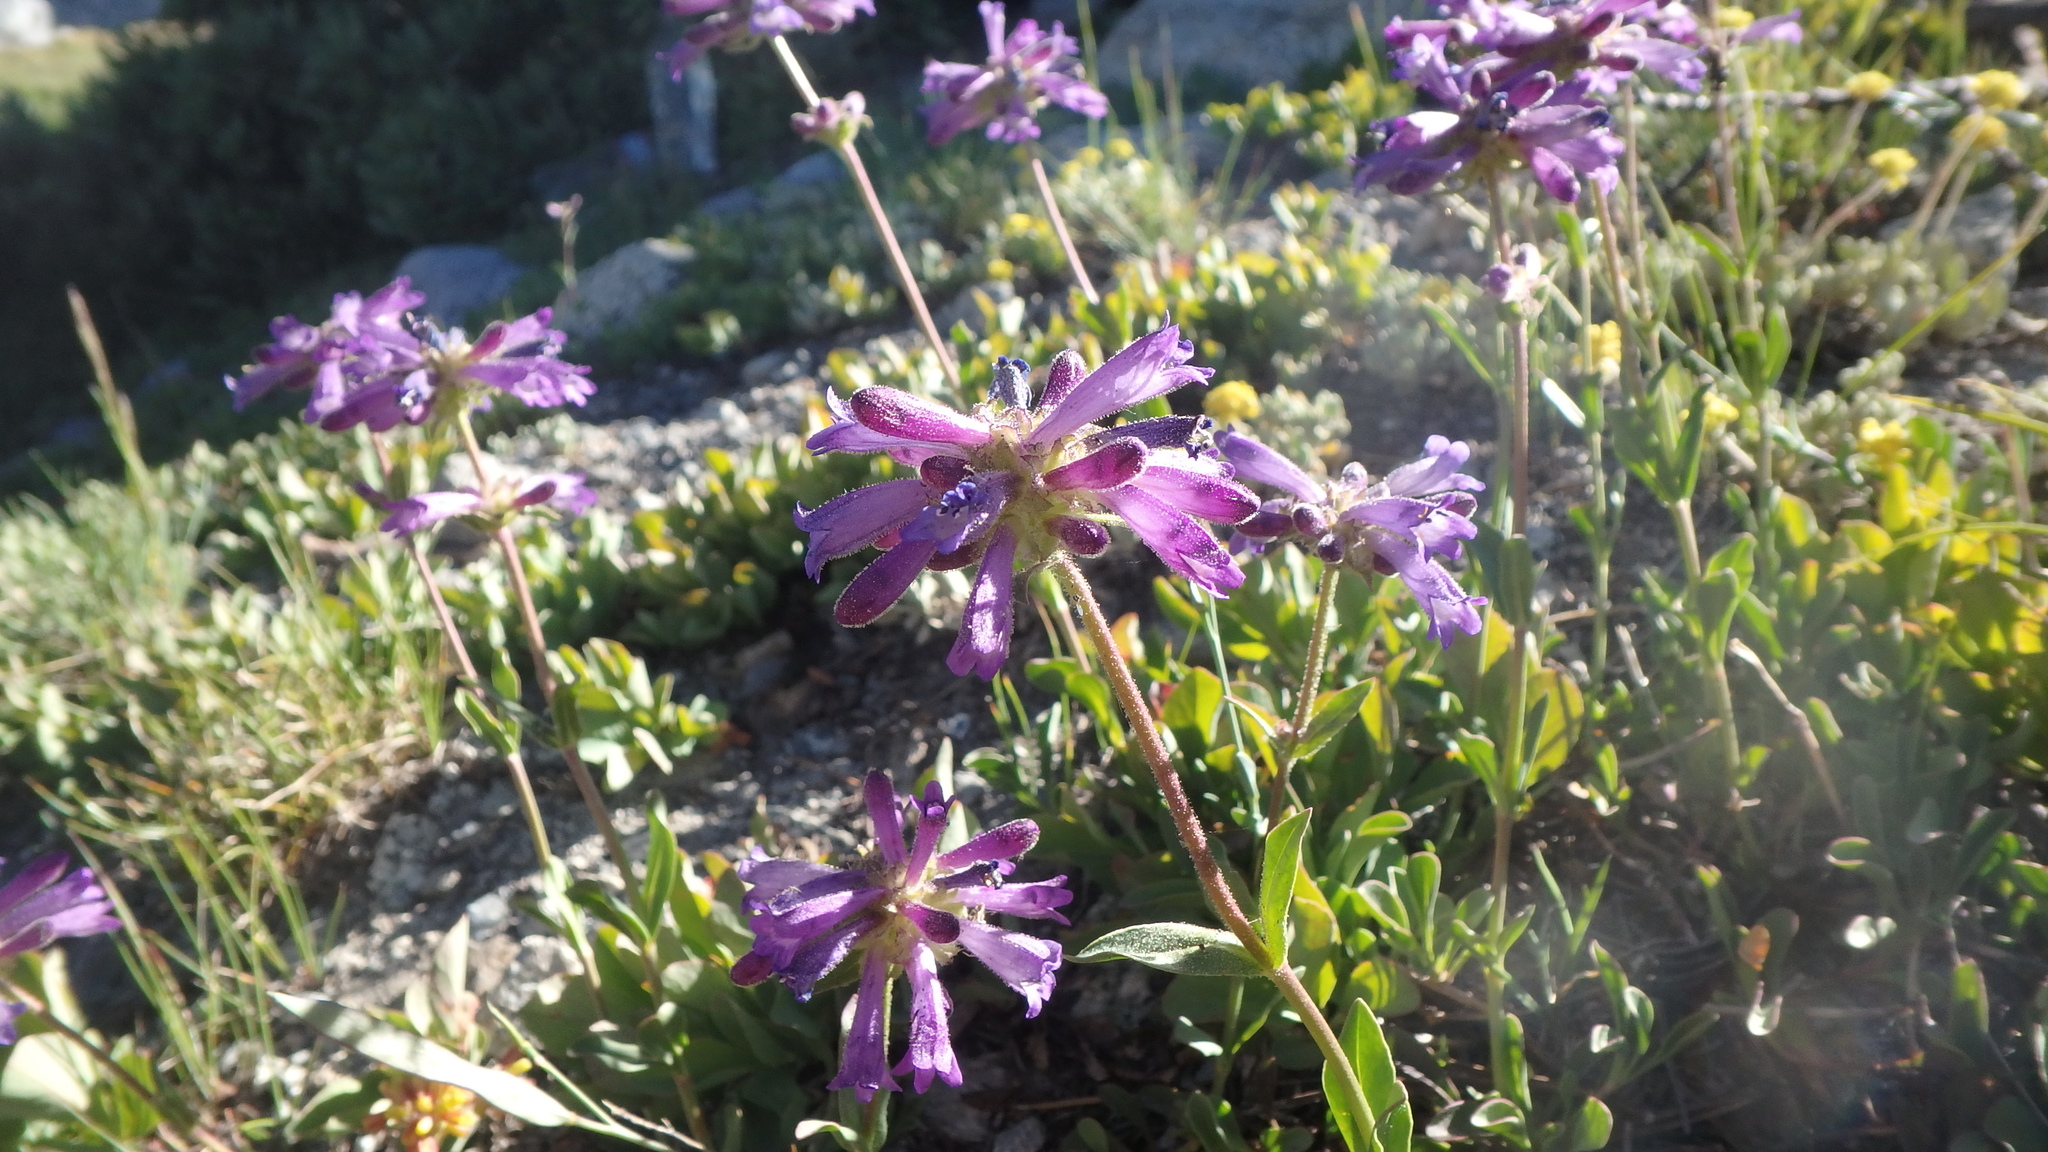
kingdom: Plantae
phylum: Tracheophyta
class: Magnoliopsida
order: Lamiales
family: Plantaginaceae
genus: Penstemon
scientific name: Penstemon heterodoxus
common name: Sierran penstemon
